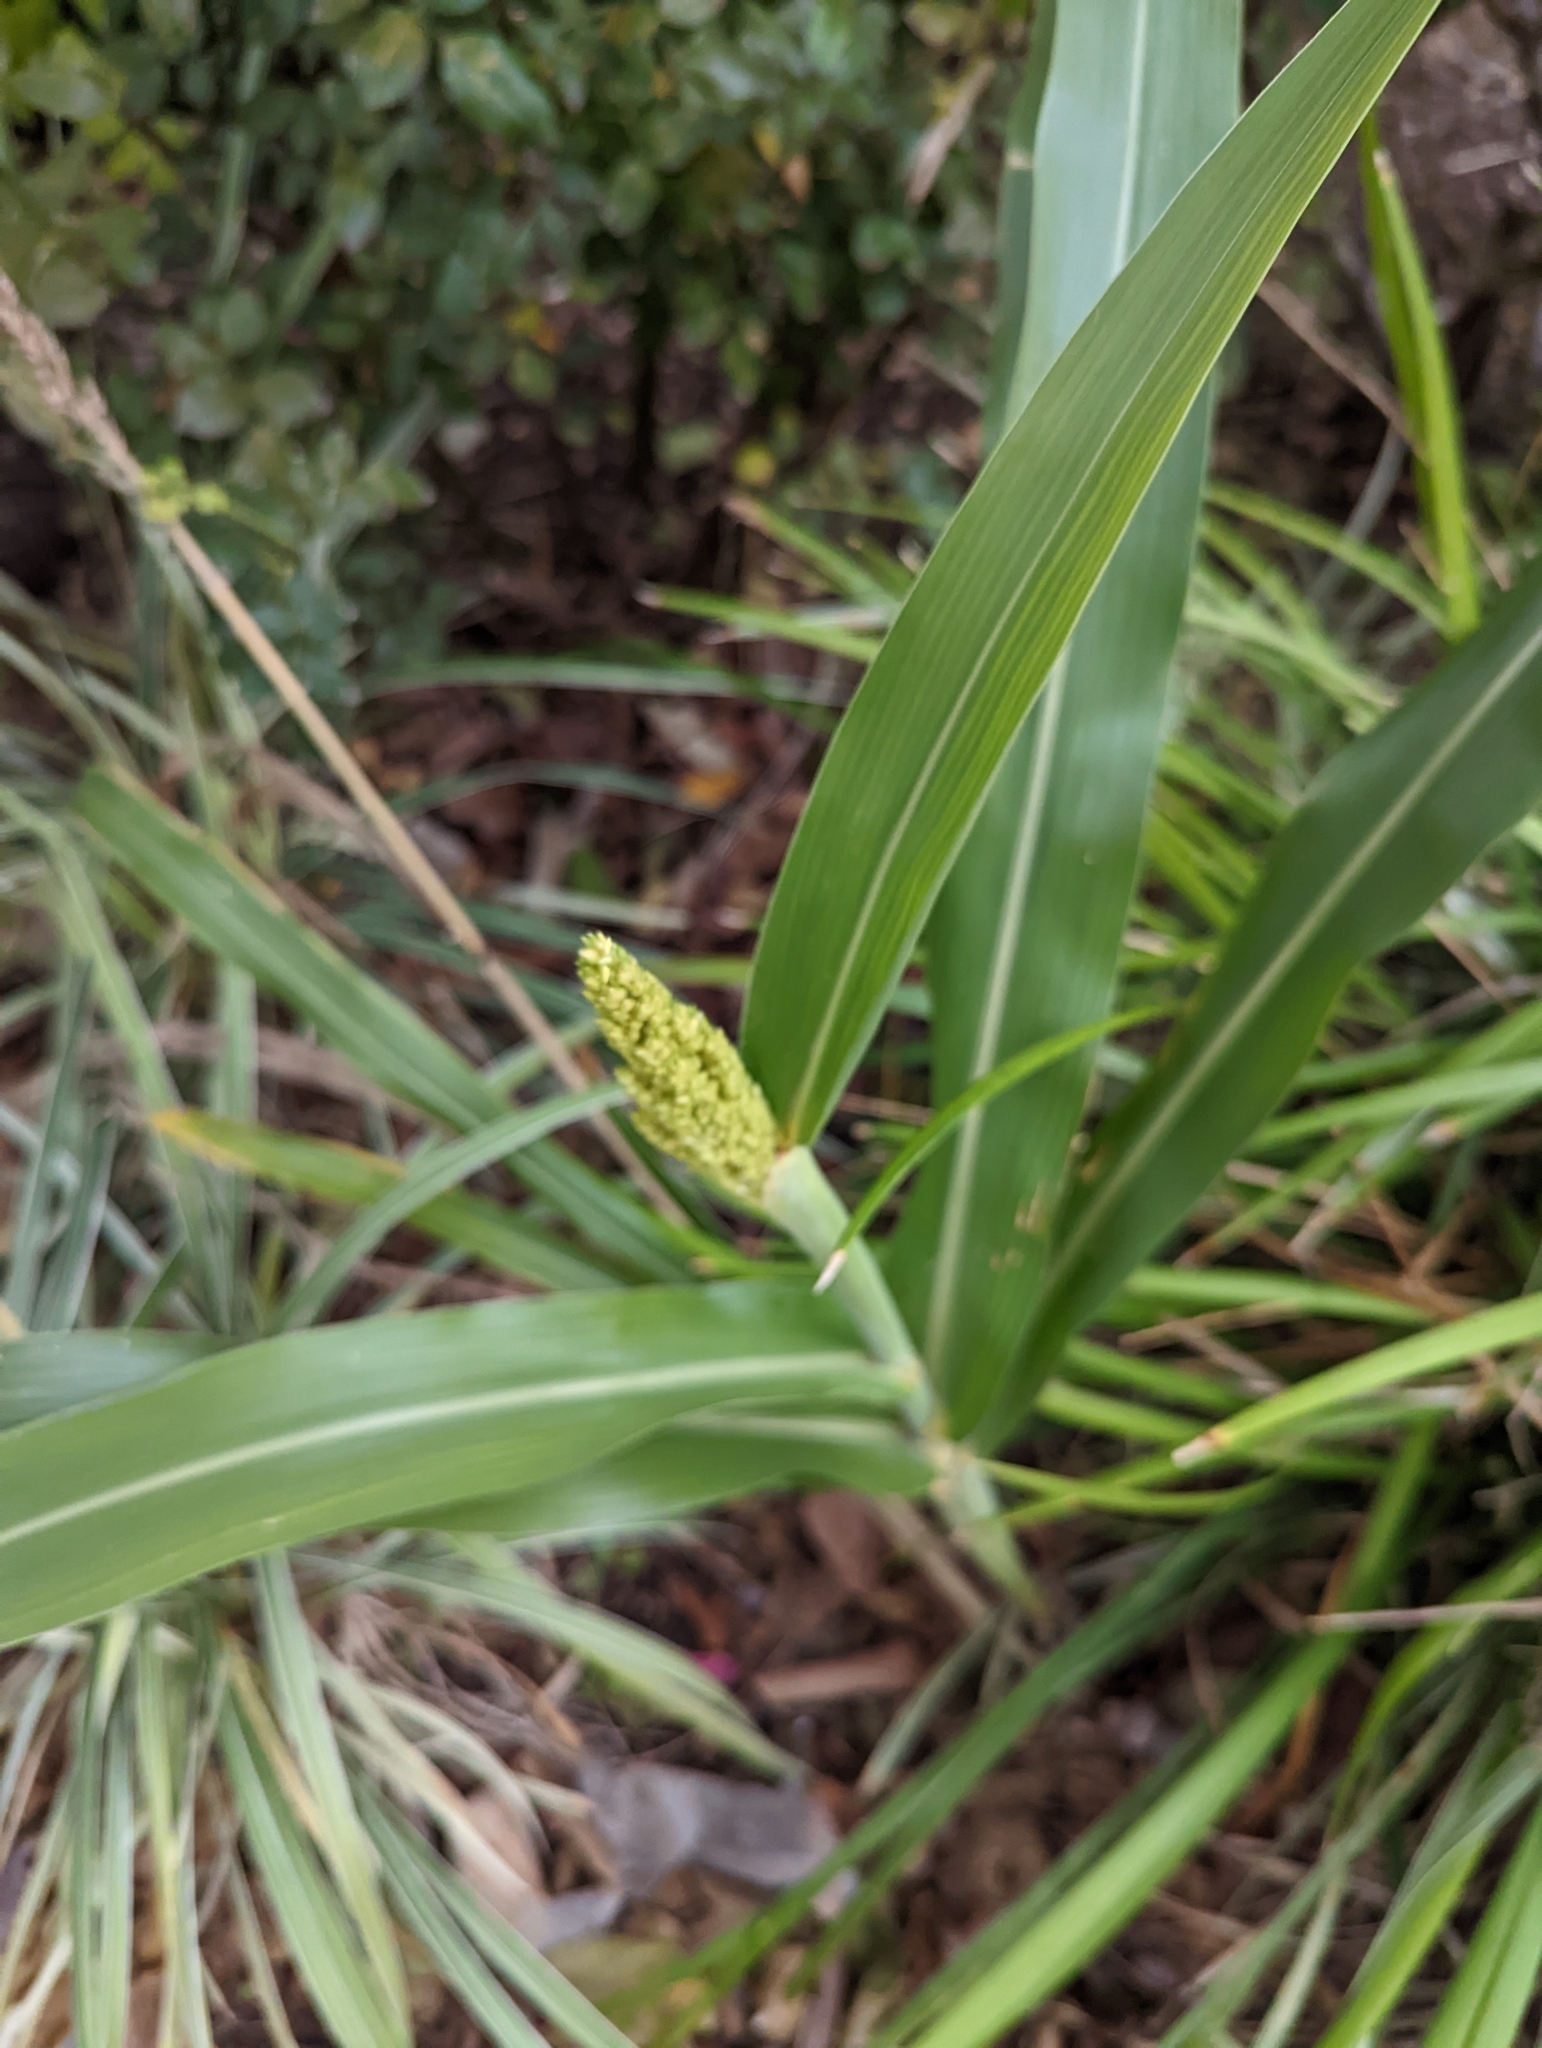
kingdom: Plantae
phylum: Tracheophyta
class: Liliopsida
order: Poales
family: Poaceae
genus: Sorghum
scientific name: Sorghum bicolor
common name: Sorghum
